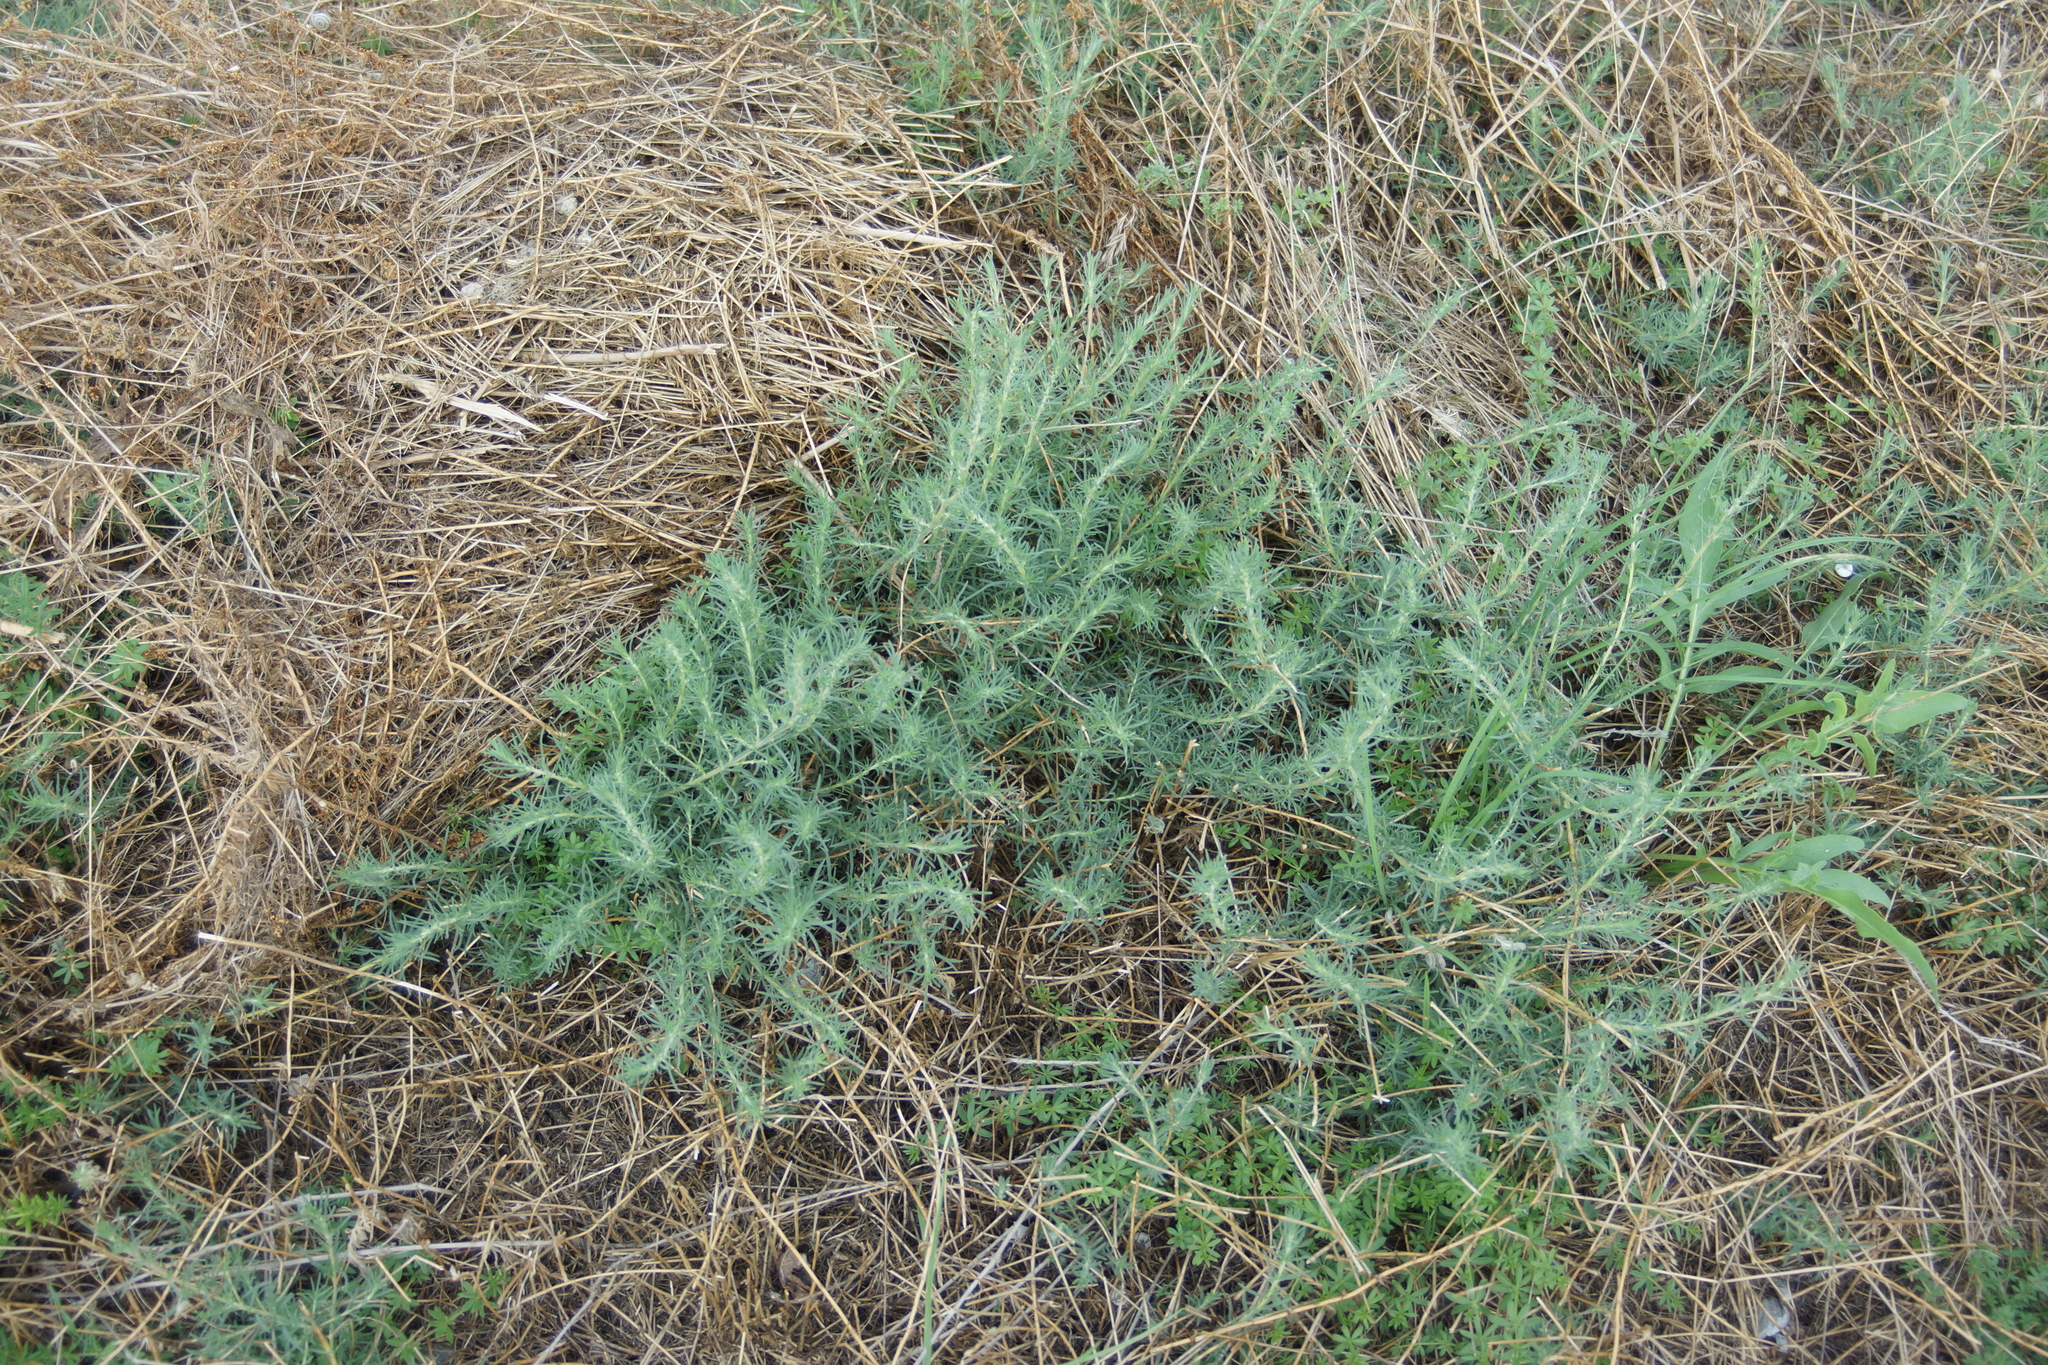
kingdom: Plantae
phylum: Tracheophyta
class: Magnoliopsida
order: Caryophyllales
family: Amaranthaceae
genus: Bassia
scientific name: Bassia prostrata
